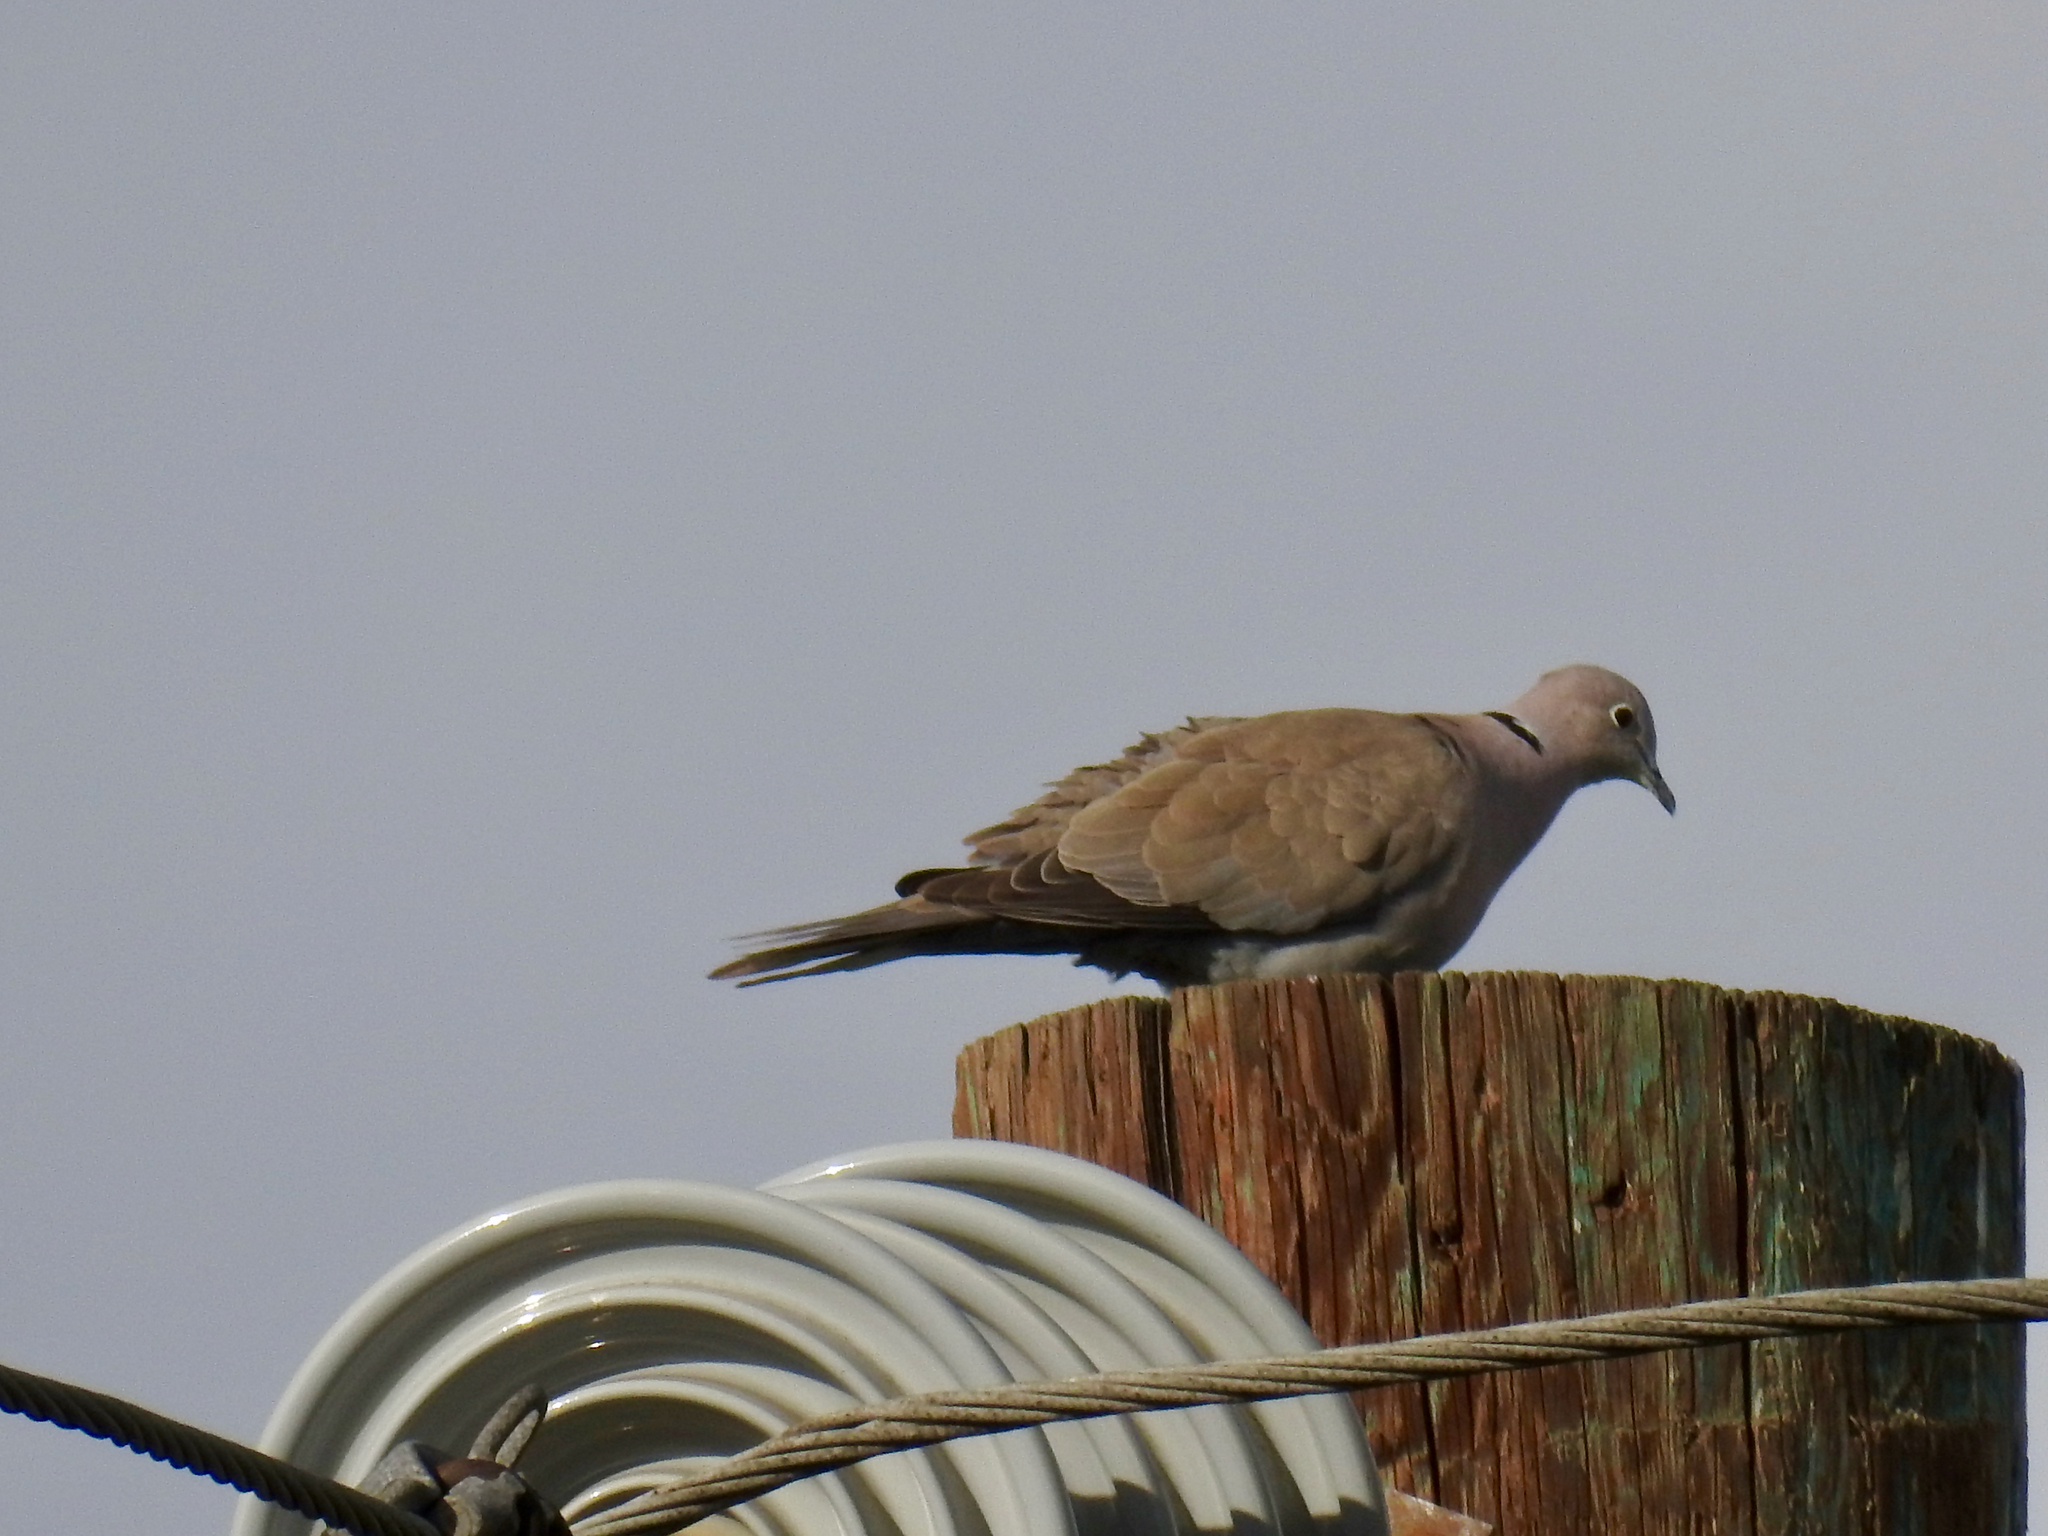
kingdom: Animalia
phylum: Chordata
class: Aves
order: Columbiformes
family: Columbidae
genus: Streptopelia
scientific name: Streptopelia decaocto
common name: Eurasian collared dove
